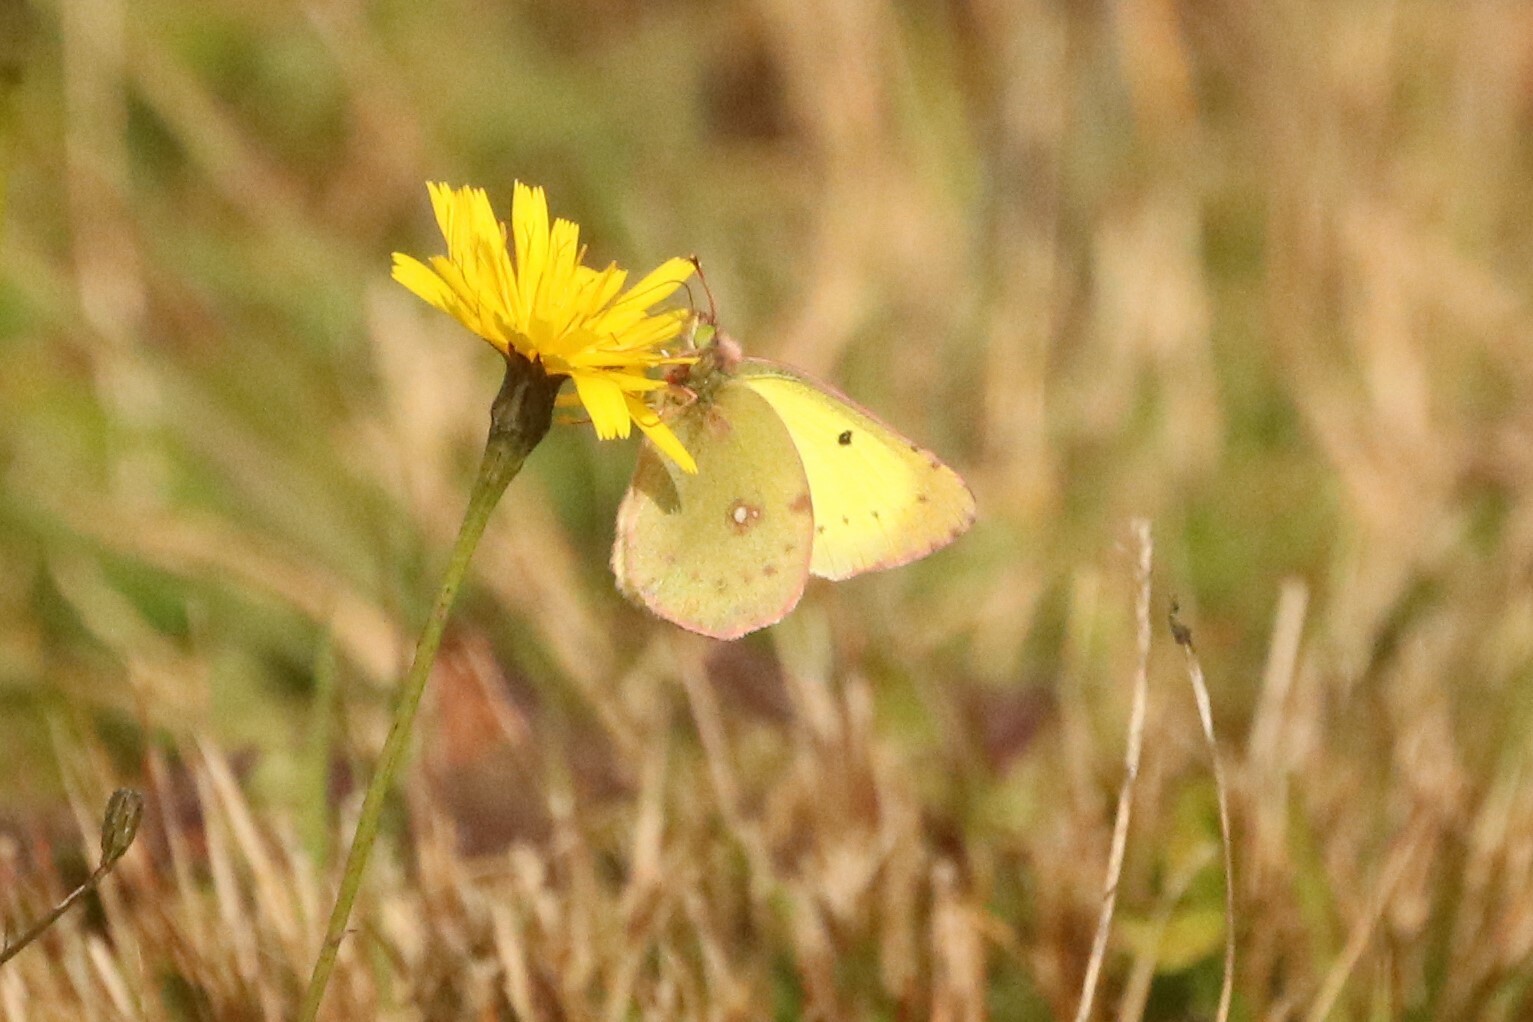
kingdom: Animalia
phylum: Arthropoda
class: Insecta
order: Lepidoptera
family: Pieridae
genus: Colias
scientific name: Colias philodice
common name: Clouded sulphur
